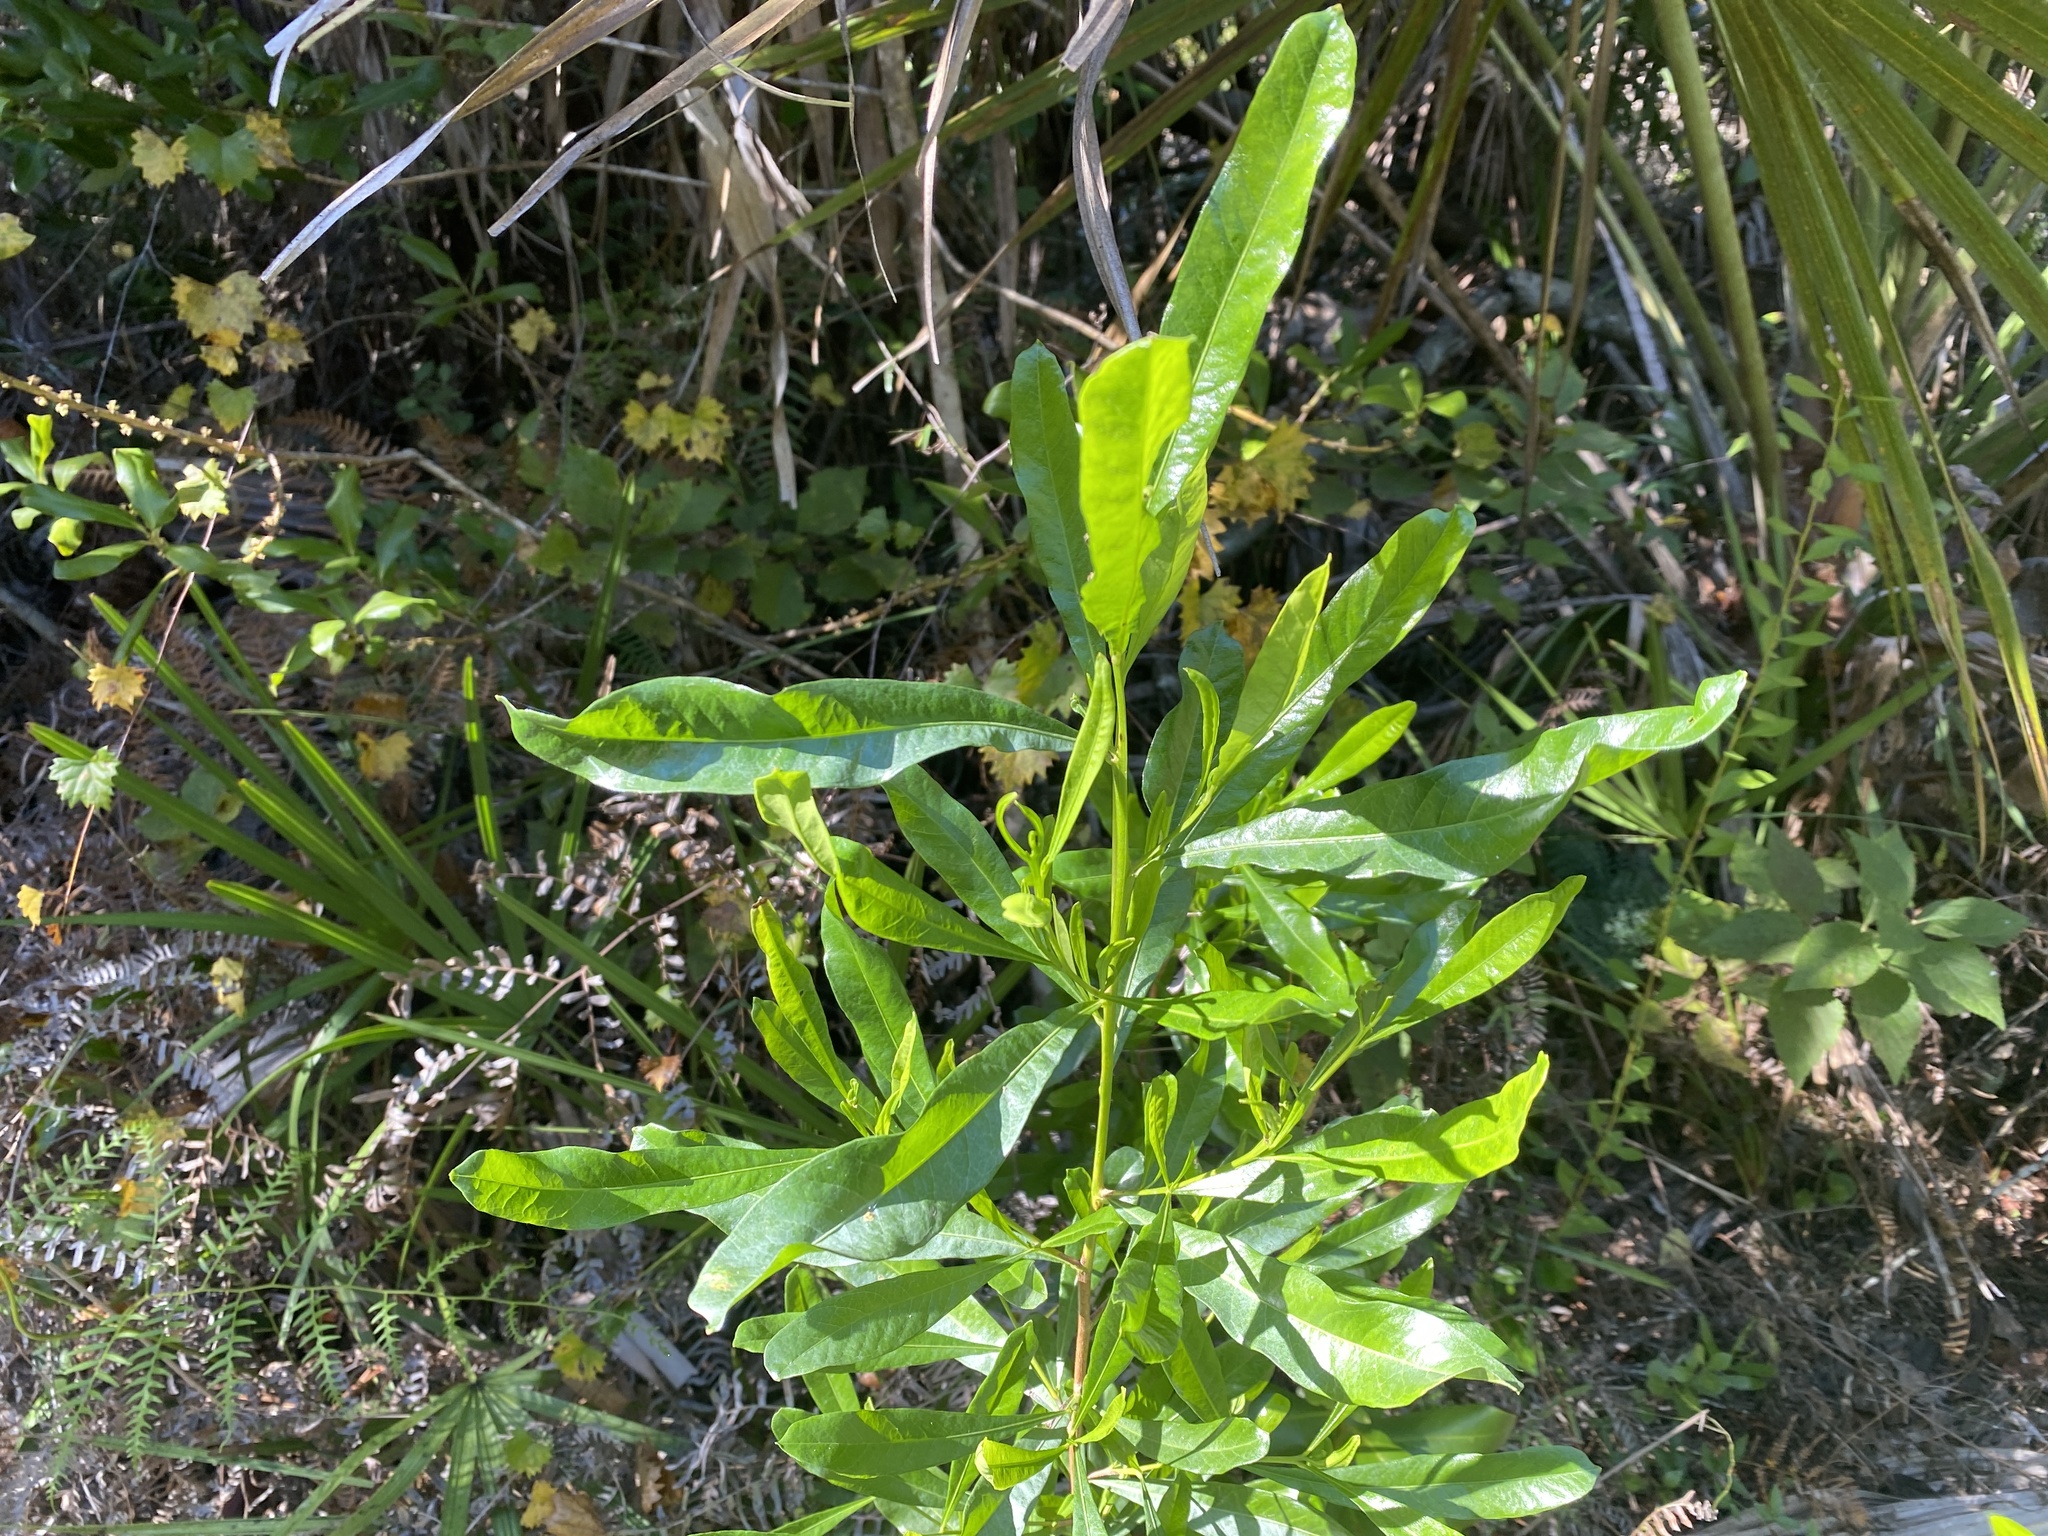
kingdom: Plantae
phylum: Tracheophyta
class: Magnoliopsida
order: Sapindales
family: Sapindaceae
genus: Dodonaea
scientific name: Dodonaea viscosa
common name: Hopbush
